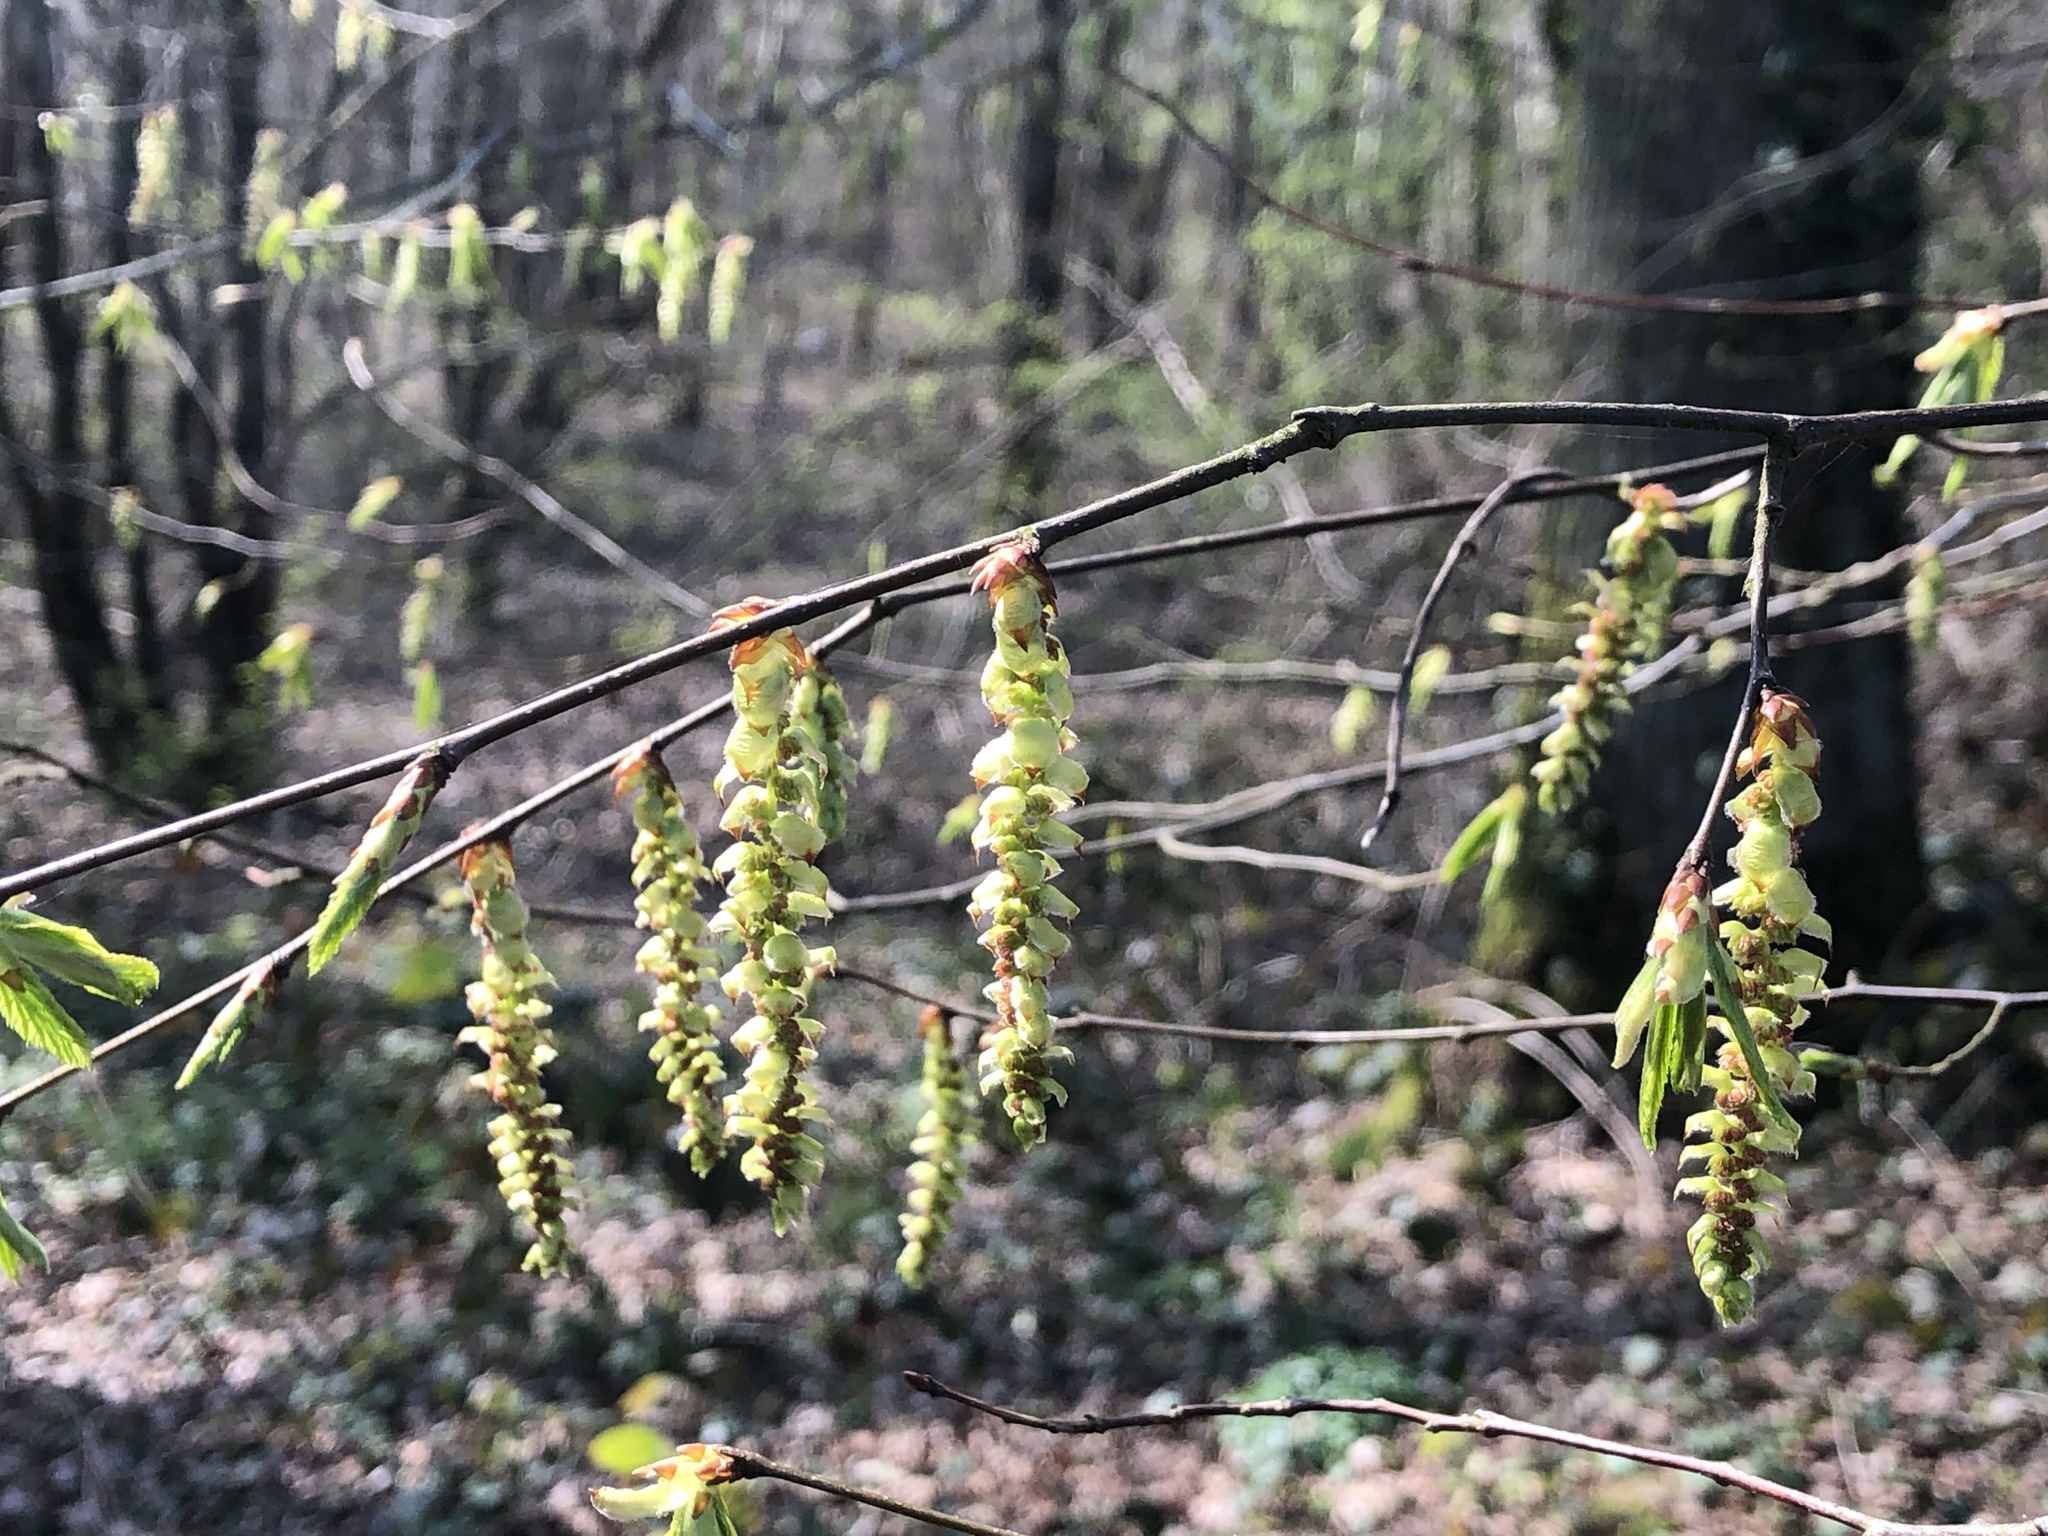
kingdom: Plantae
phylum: Tracheophyta
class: Magnoliopsida
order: Fagales
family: Betulaceae
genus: Carpinus
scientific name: Carpinus betulus
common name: Hornbeam
